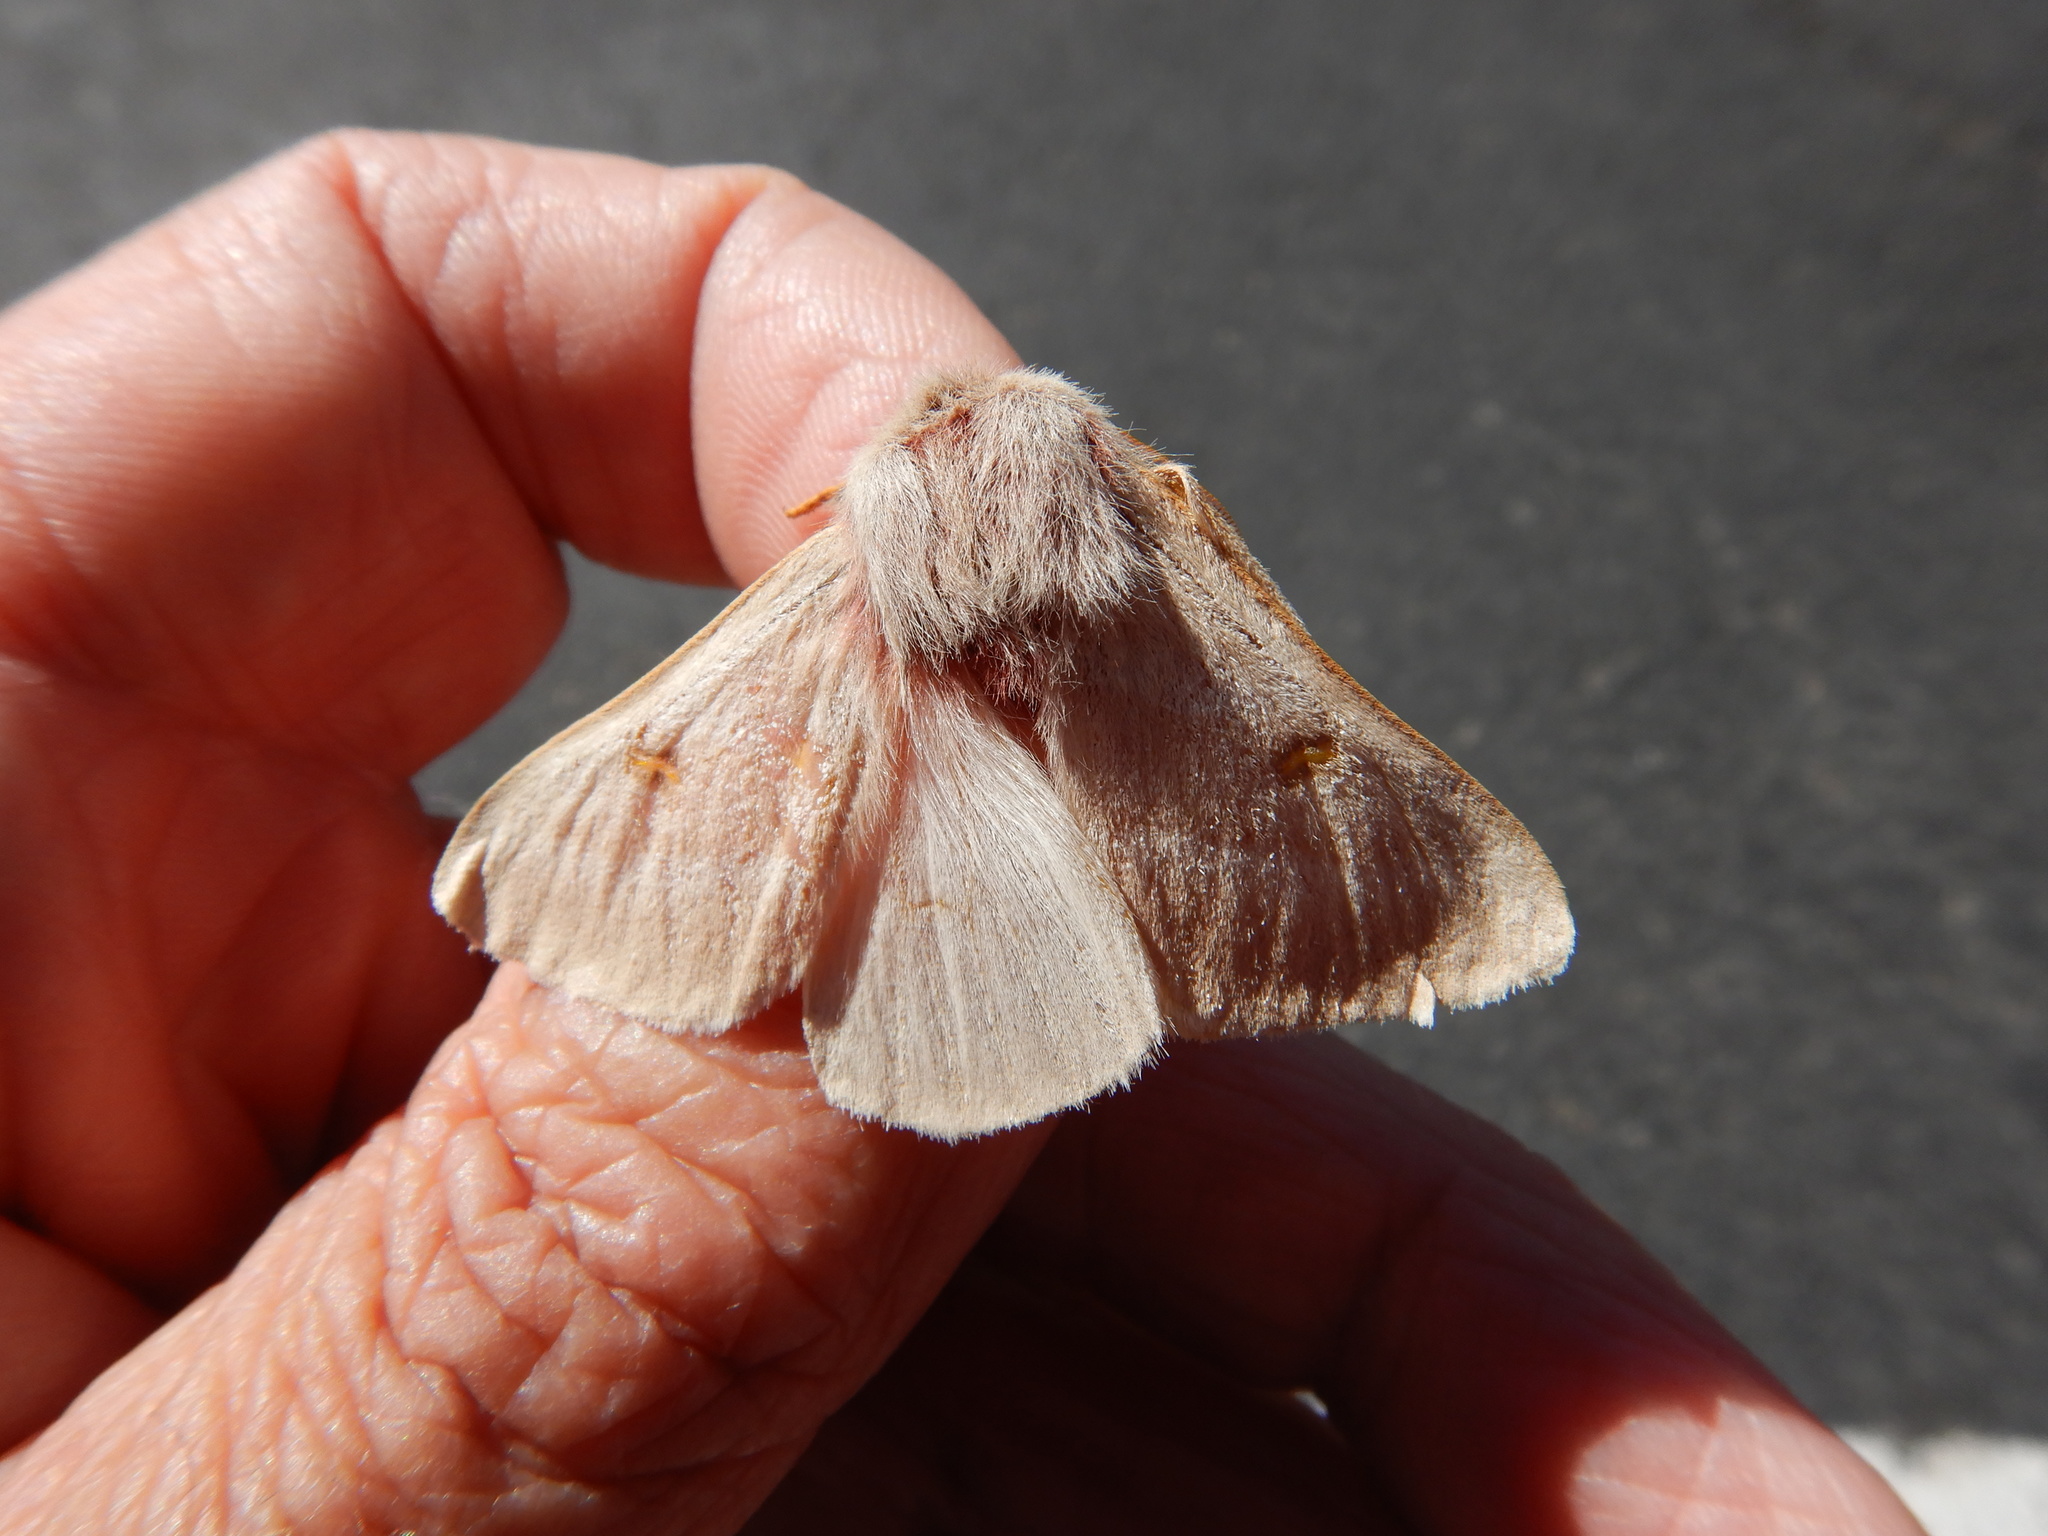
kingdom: Animalia
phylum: Arthropoda
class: Insecta
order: Lepidoptera
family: Saturniidae
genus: Hemileuca
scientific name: Hemileuca oliviae
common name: Range caterpillar moth
